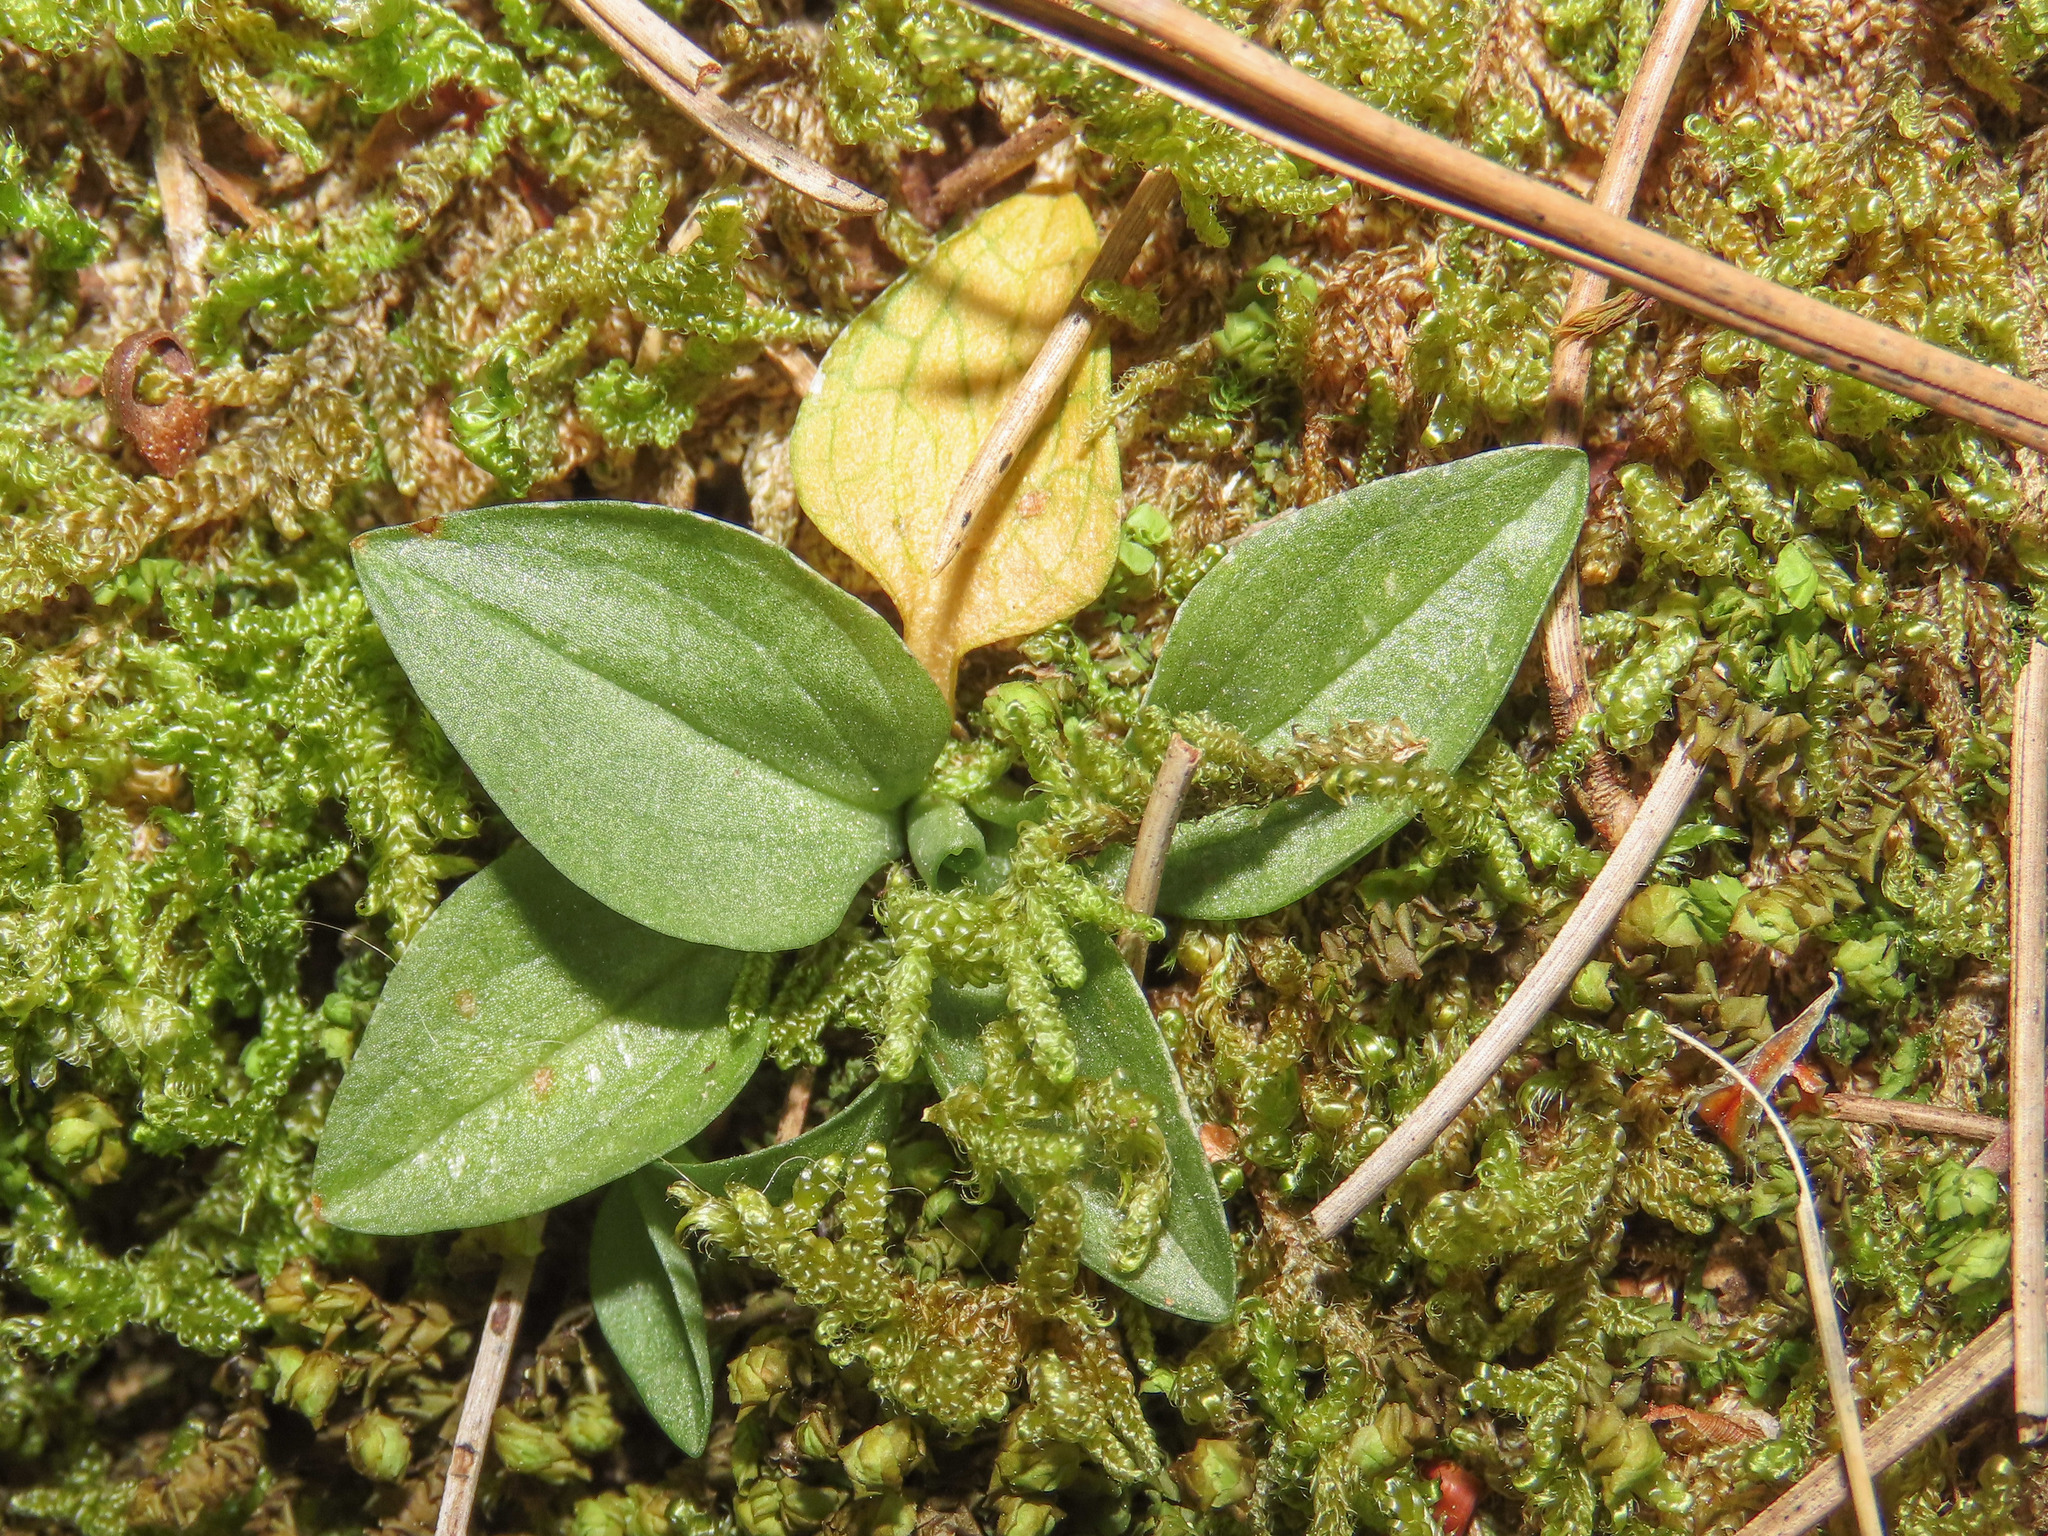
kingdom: Plantae
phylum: Tracheophyta
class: Liliopsida
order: Asparagales
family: Orchidaceae
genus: Goodyera
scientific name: Goodyera repens
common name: Creeping lady's-tresses
